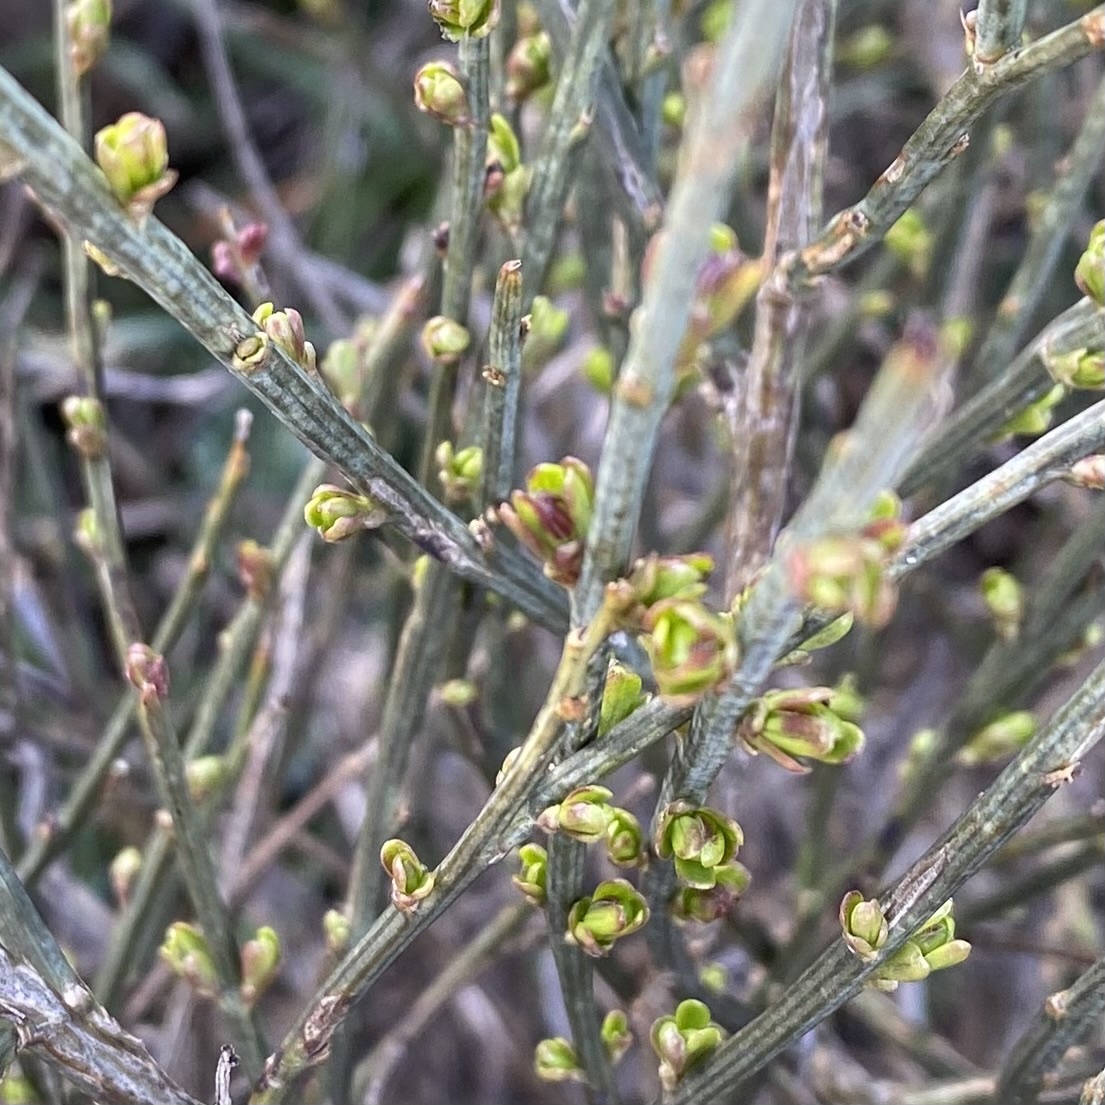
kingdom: Plantae
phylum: Tracheophyta
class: Magnoliopsida
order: Santalales
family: Santalaceae
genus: Osyris
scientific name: Osyris alba
